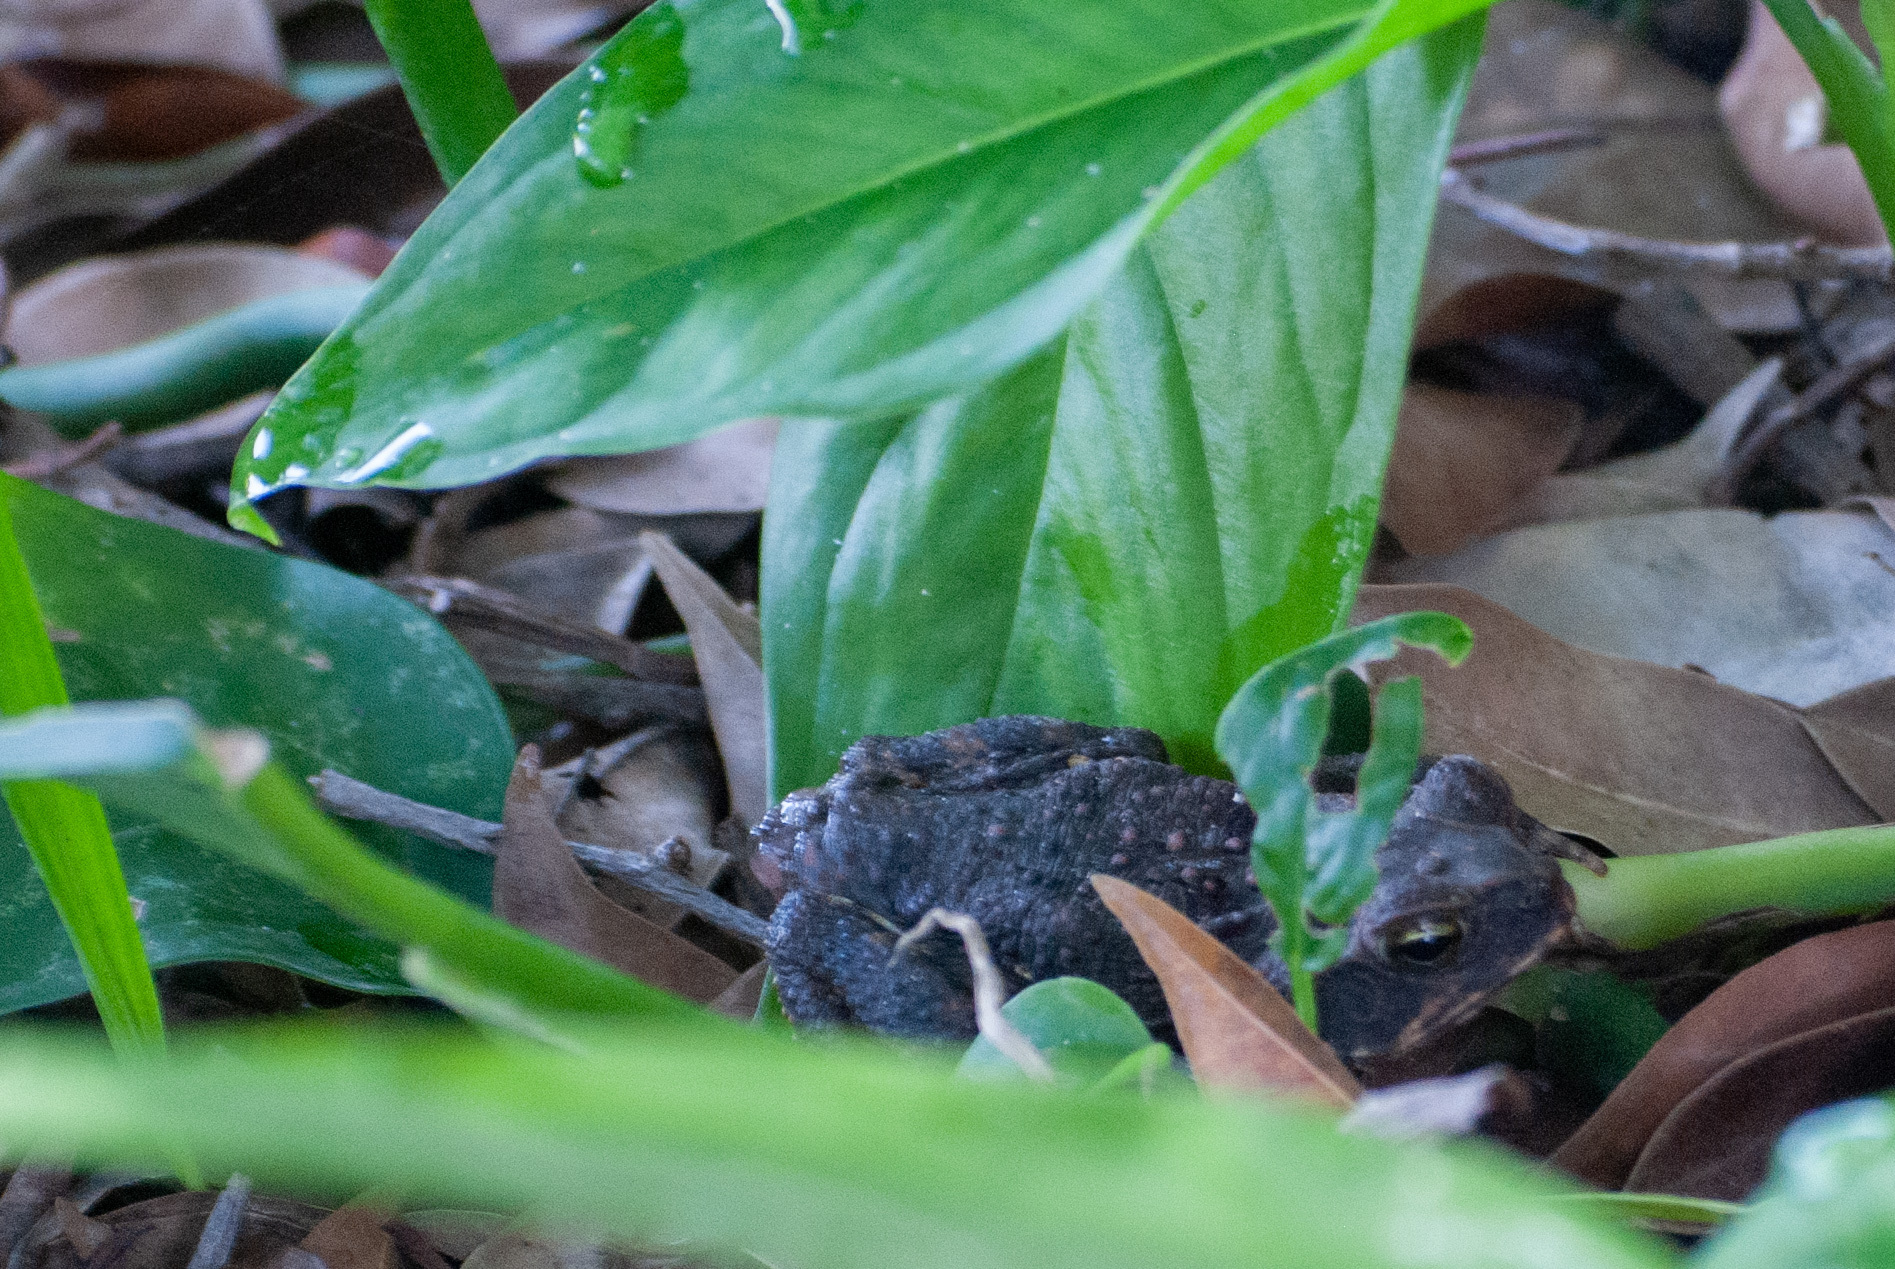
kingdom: Animalia
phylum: Chordata
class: Amphibia
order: Anura
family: Bufonidae
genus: Rhinella
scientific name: Rhinella horribilis
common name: Mesoamerican cane toad
